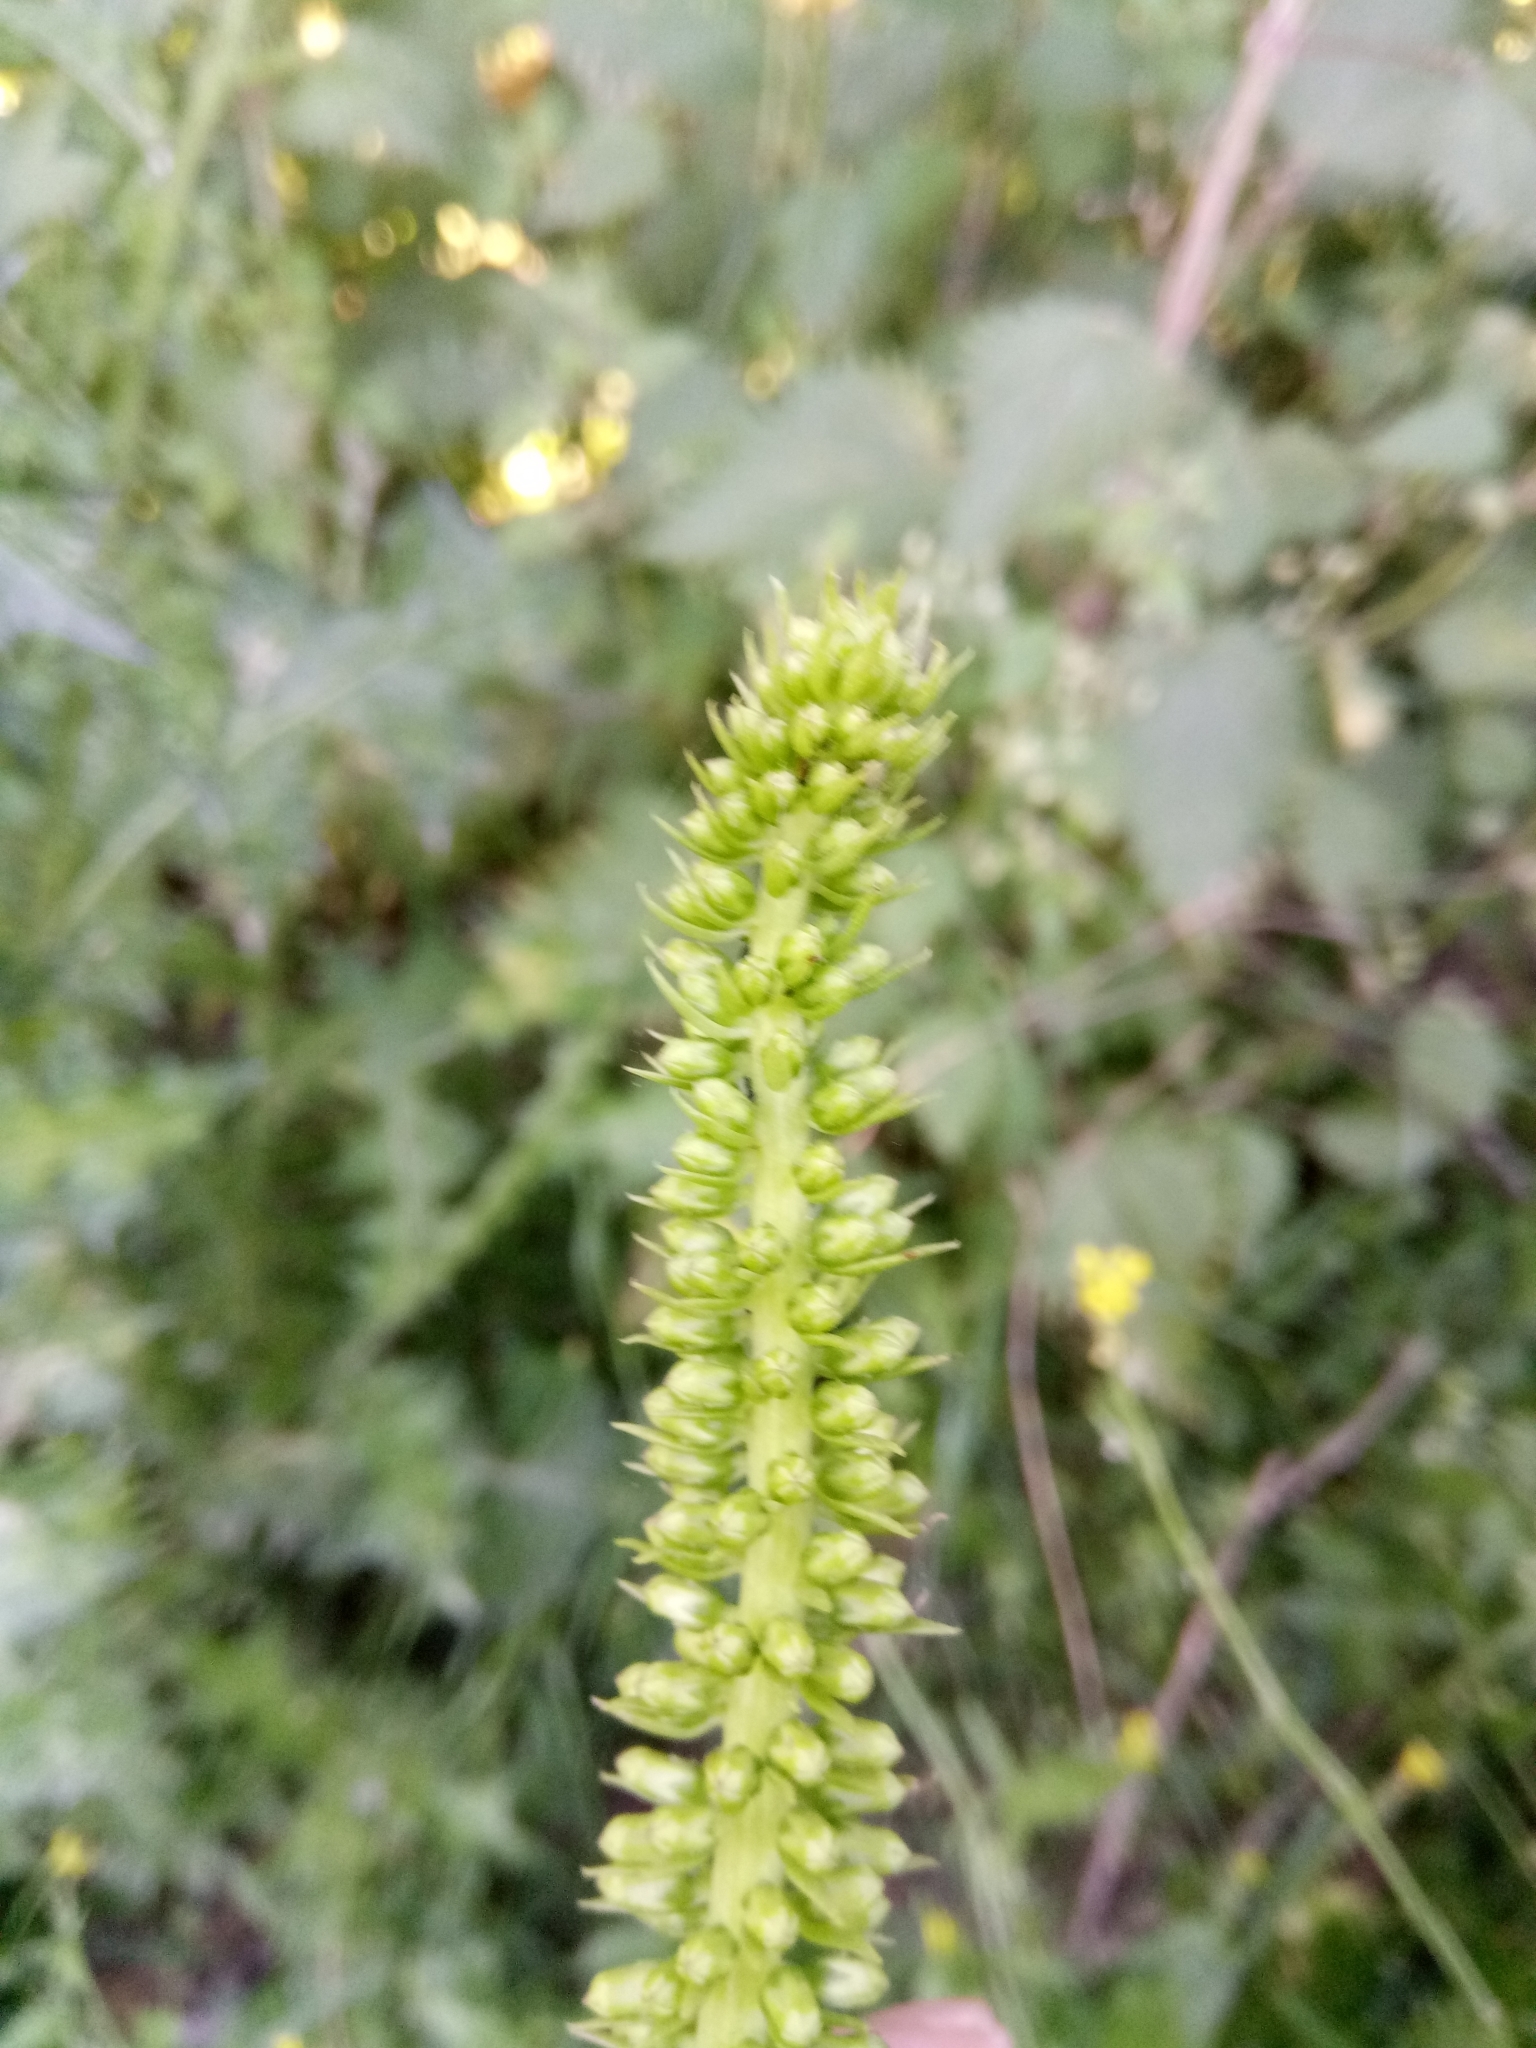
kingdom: Plantae
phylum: Tracheophyta
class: Magnoliopsida
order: Saxifragales
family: Crassulaceae
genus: Umbilicus
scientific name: Umbilicus horizontalis
